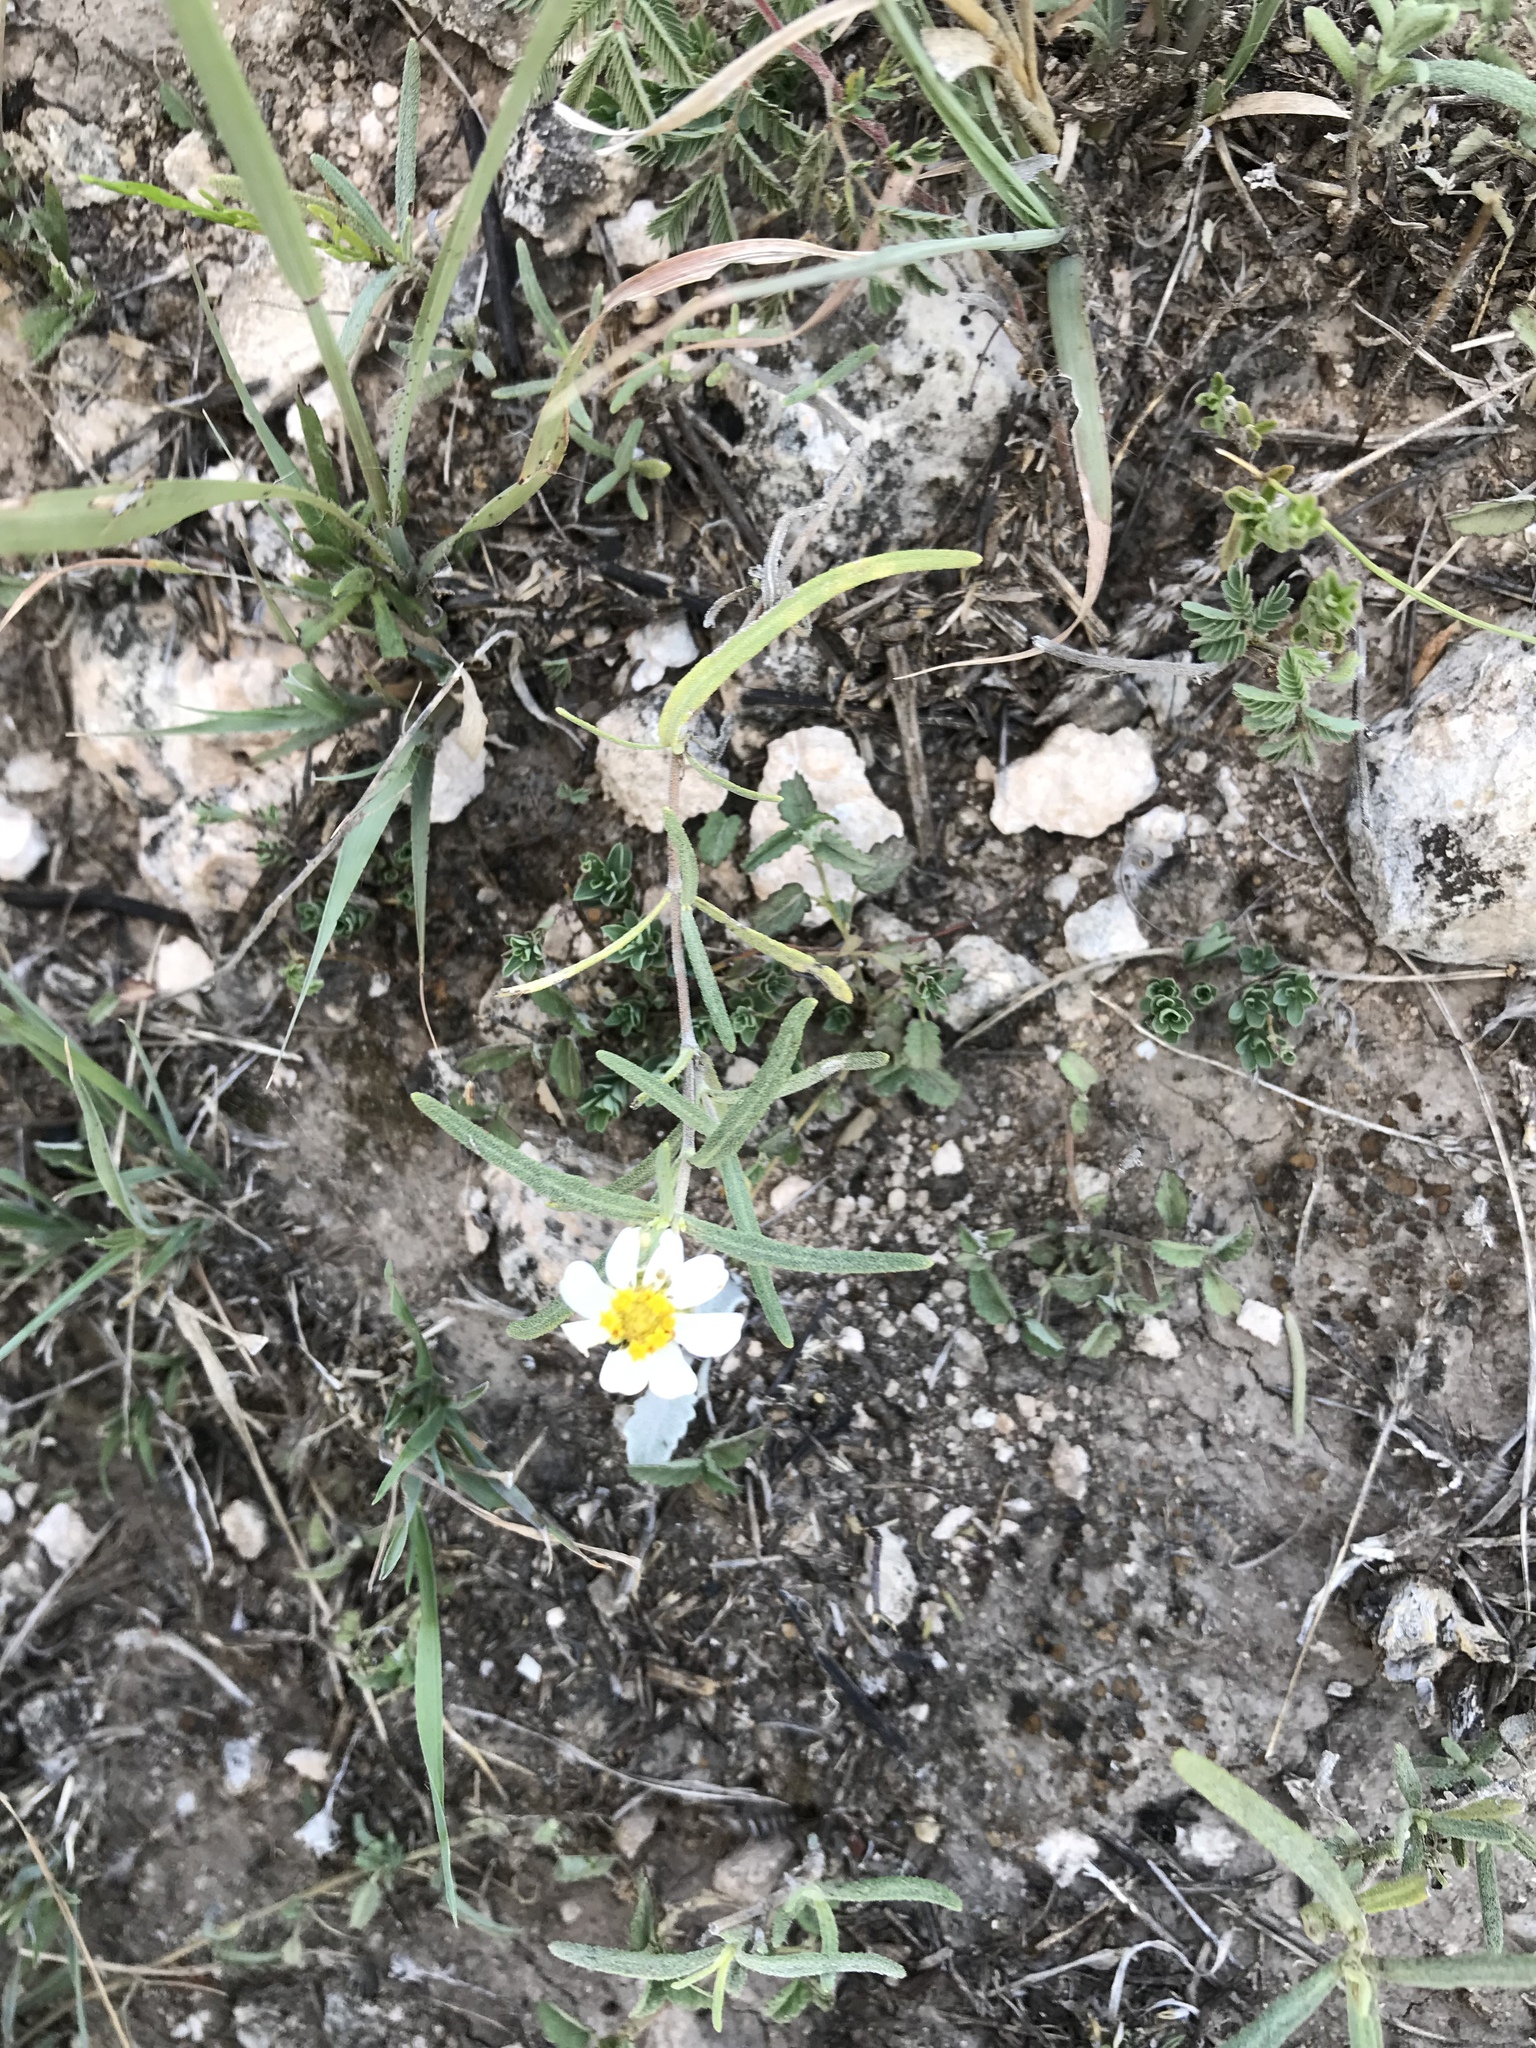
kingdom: Plantae
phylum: Tracheophyta
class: Magnoliopsida
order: Asterales
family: Asteraceae
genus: Melampodium
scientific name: Melampodium leucanthum
